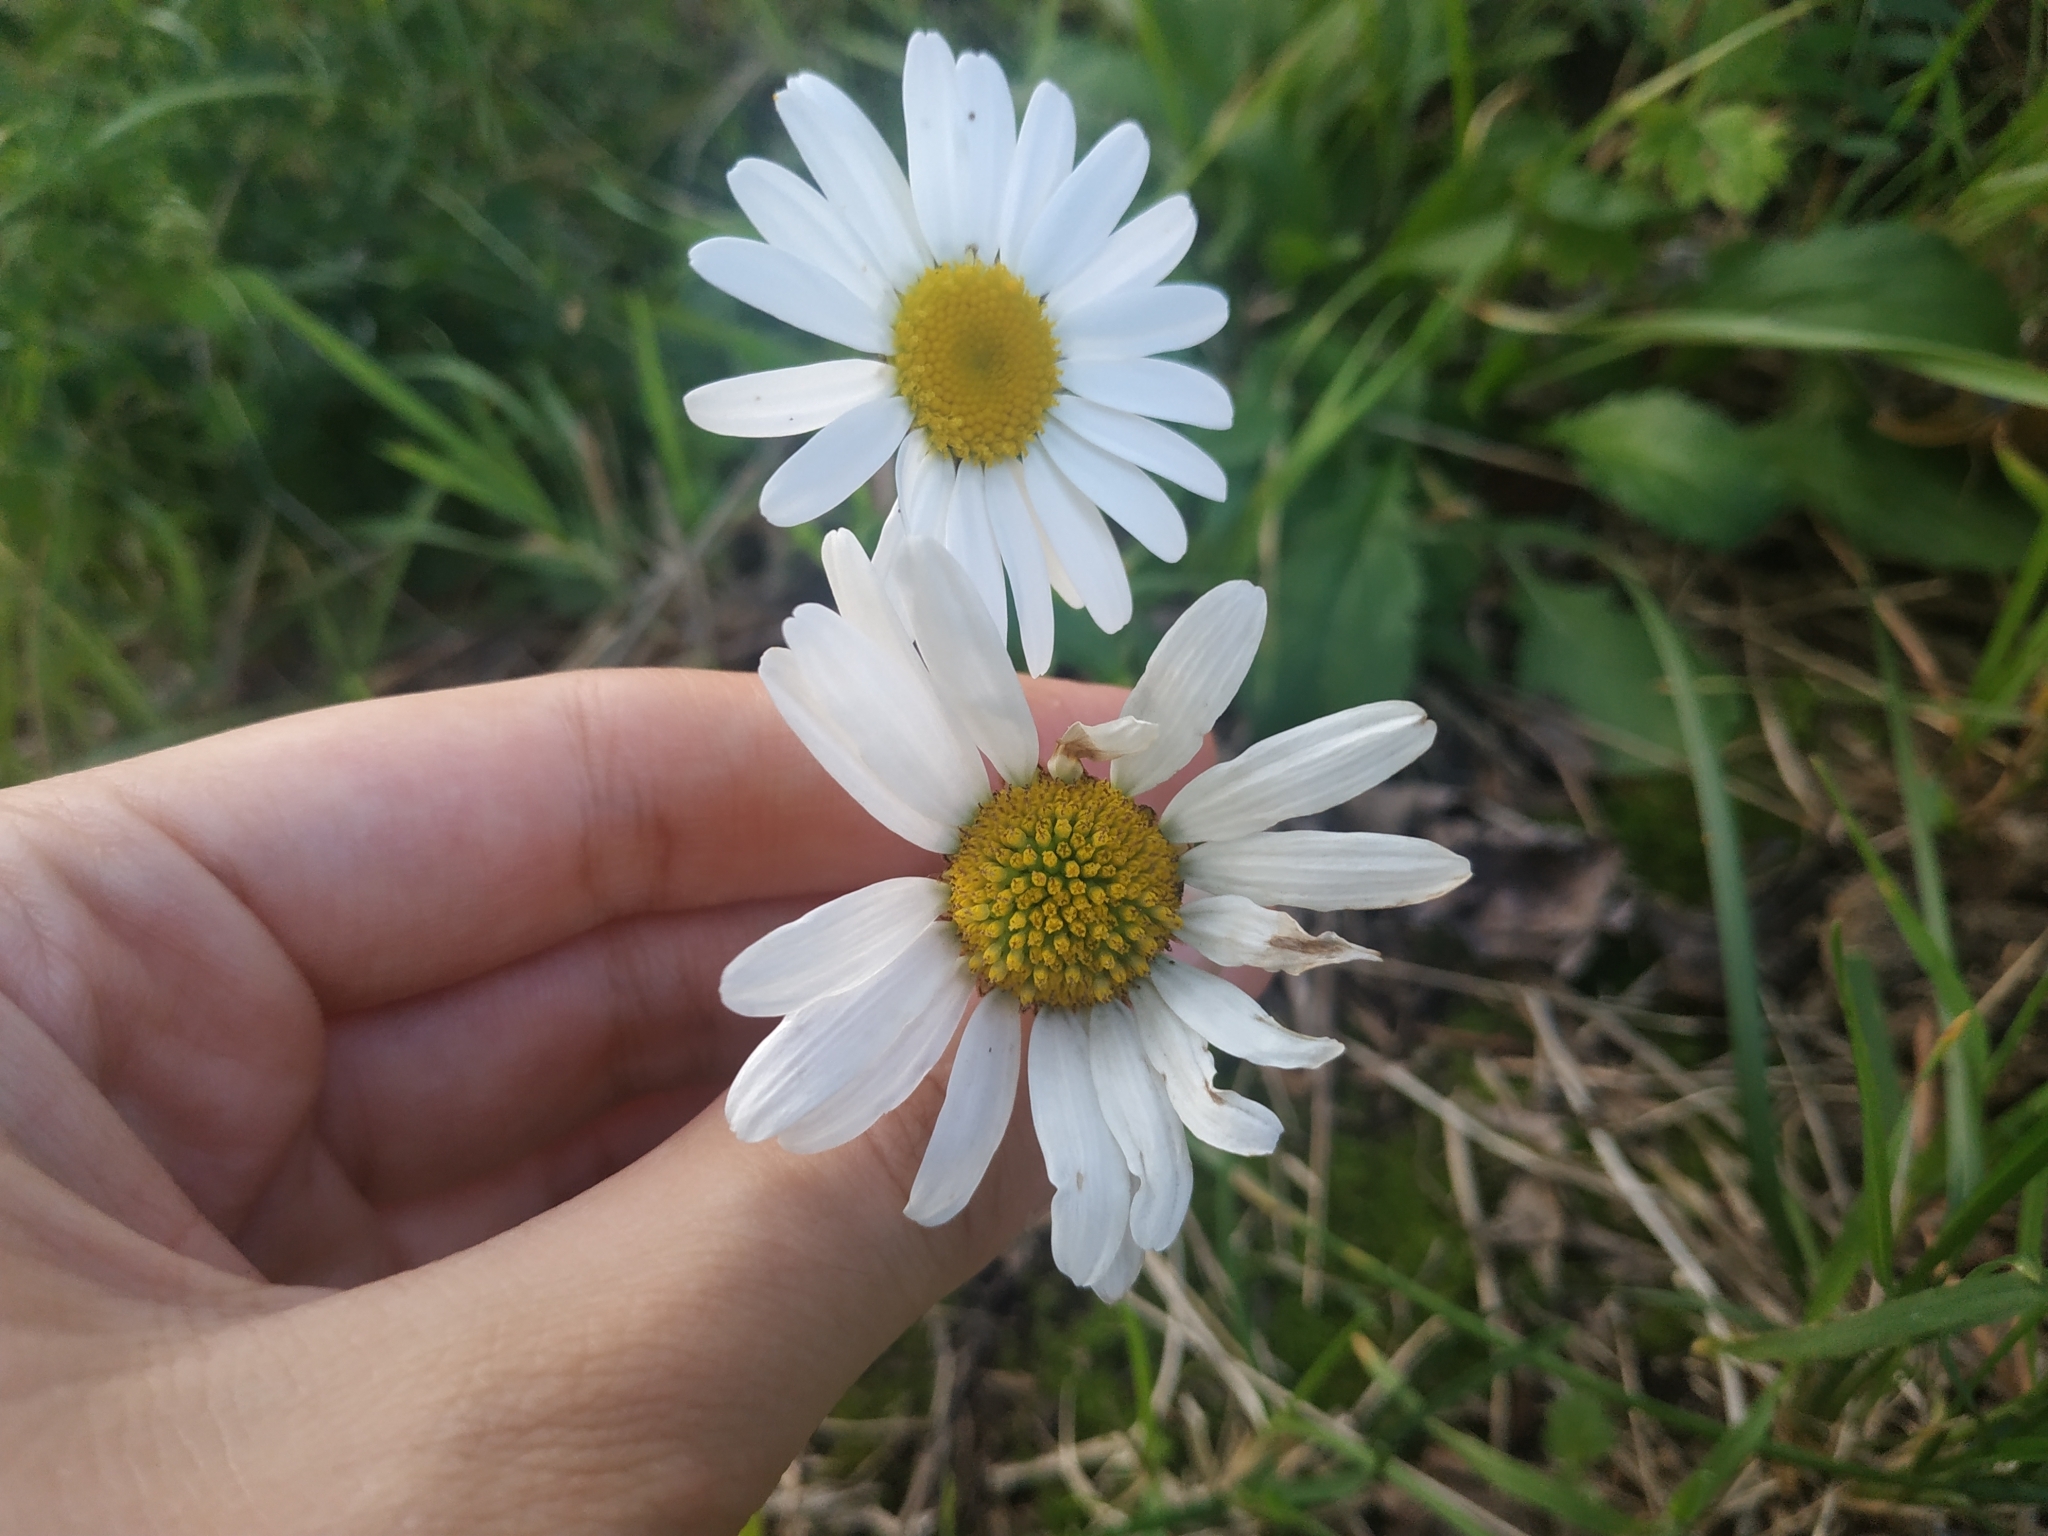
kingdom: Plantae
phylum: Tracheophyta
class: Magnoliopsida
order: Asterales
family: Asteraceae
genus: Leucanthemum
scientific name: Leucanthemum vulgare
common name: Oxeye daisy
